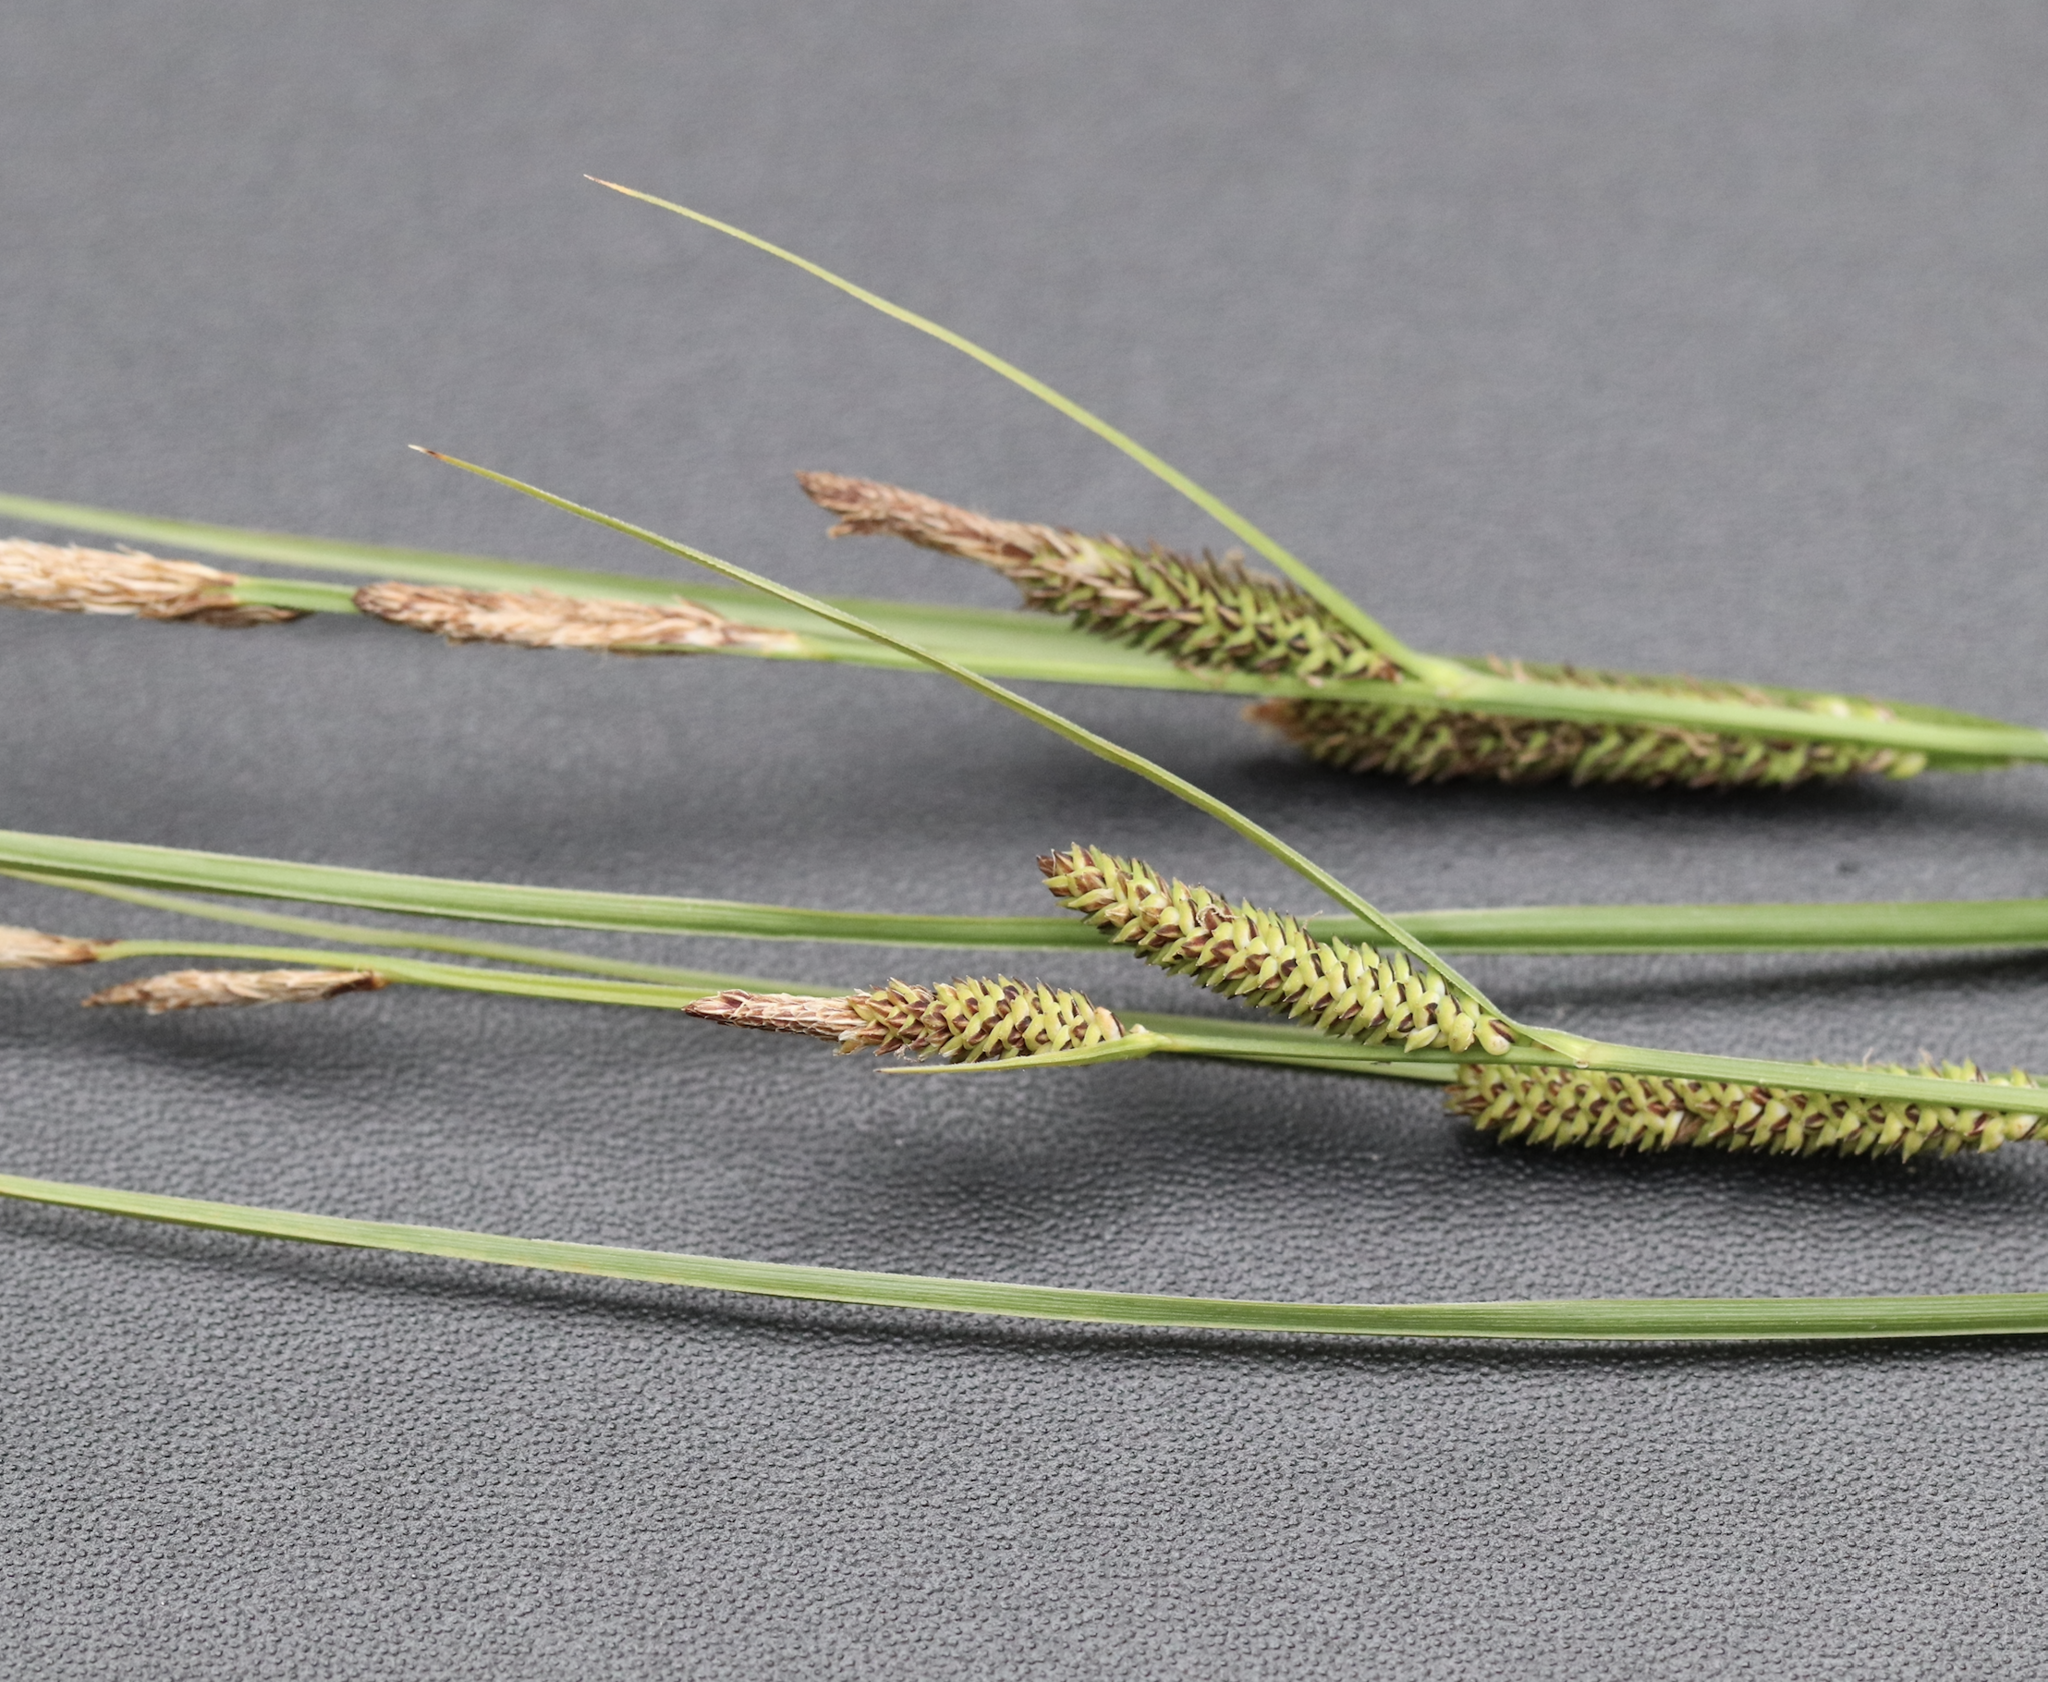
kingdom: Plantae
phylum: Tracheophyta
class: Liliopsida
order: Poales
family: Cyperaceae
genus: Carex
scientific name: Carex aquatilis
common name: Water sedge
